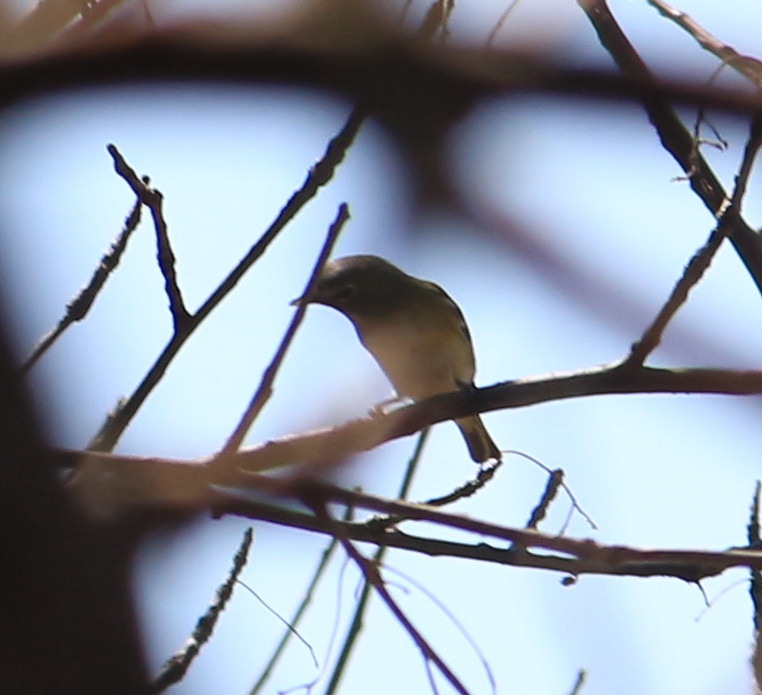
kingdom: Animalia
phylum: Chordata
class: Aves
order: Passeriformes
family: Vireonidae
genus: Vireo
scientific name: Vireo solitarius
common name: Blue-headed vireo
